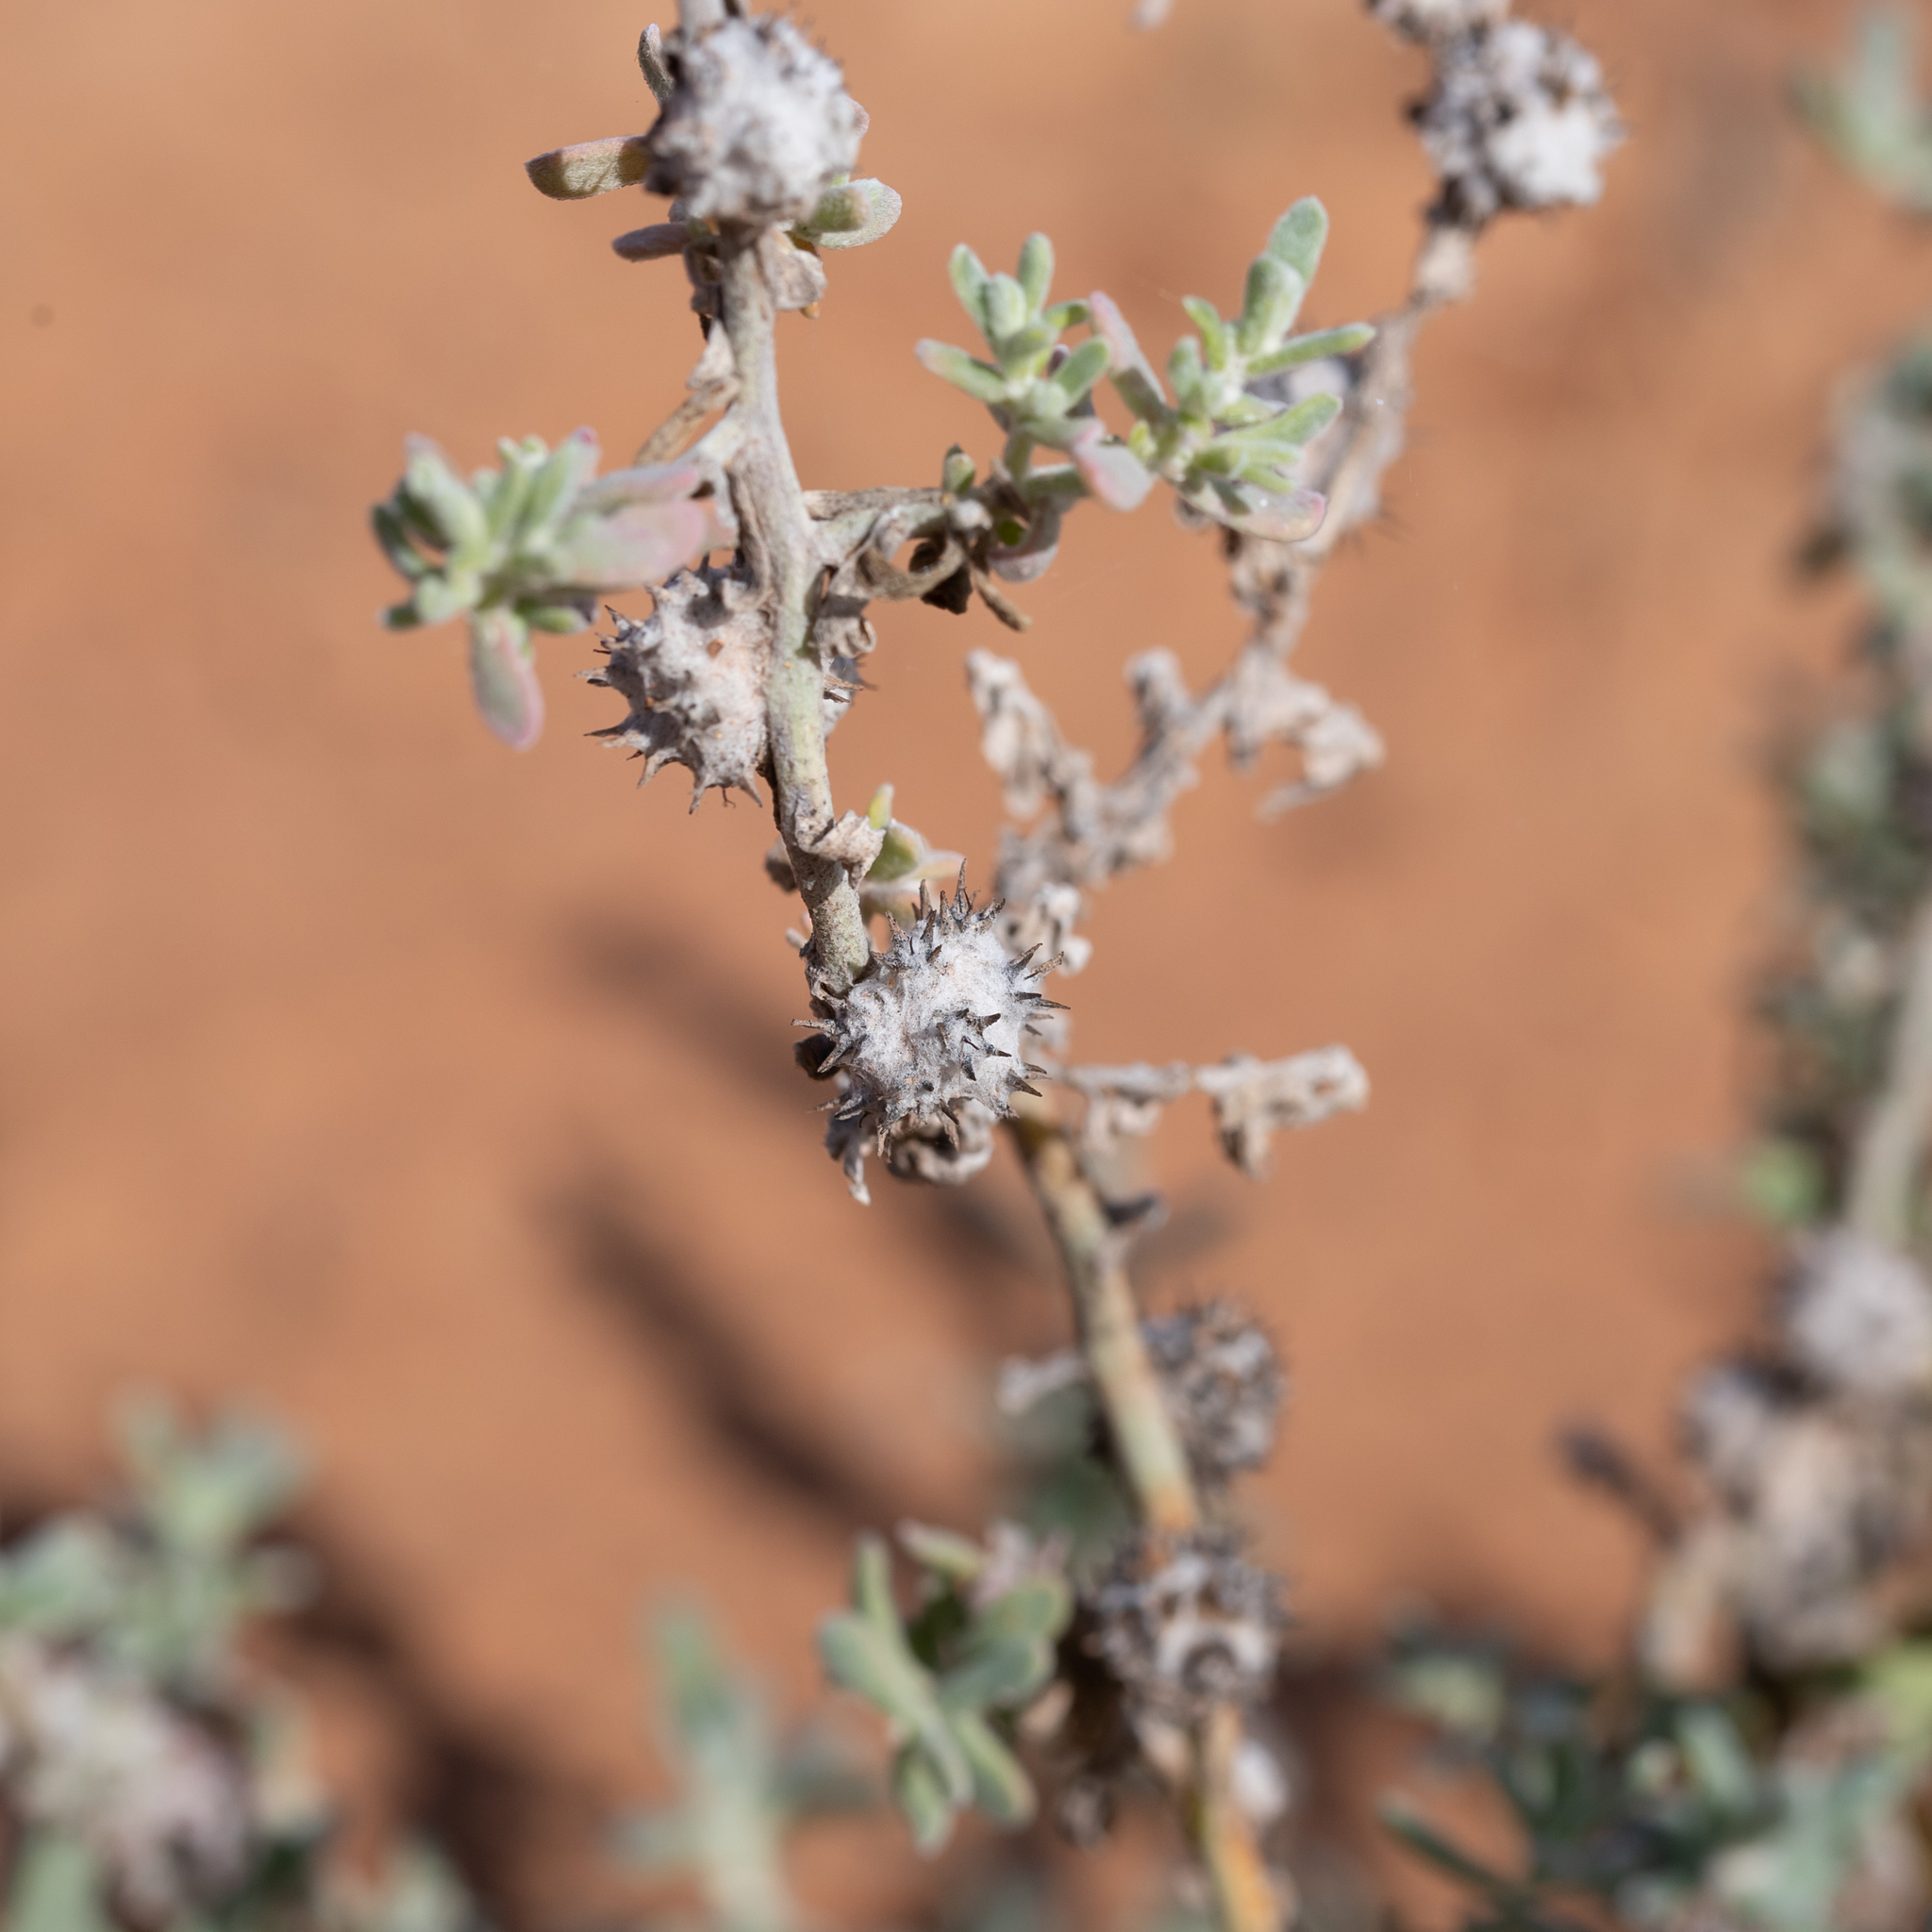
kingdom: Plantae
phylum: Tracheophyta
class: Magnoliopsida
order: Caryophyllales
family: Amaranthaceae
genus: Dissocarpus
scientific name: Dissocarpus paradoxus
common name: Bur-saltbush
